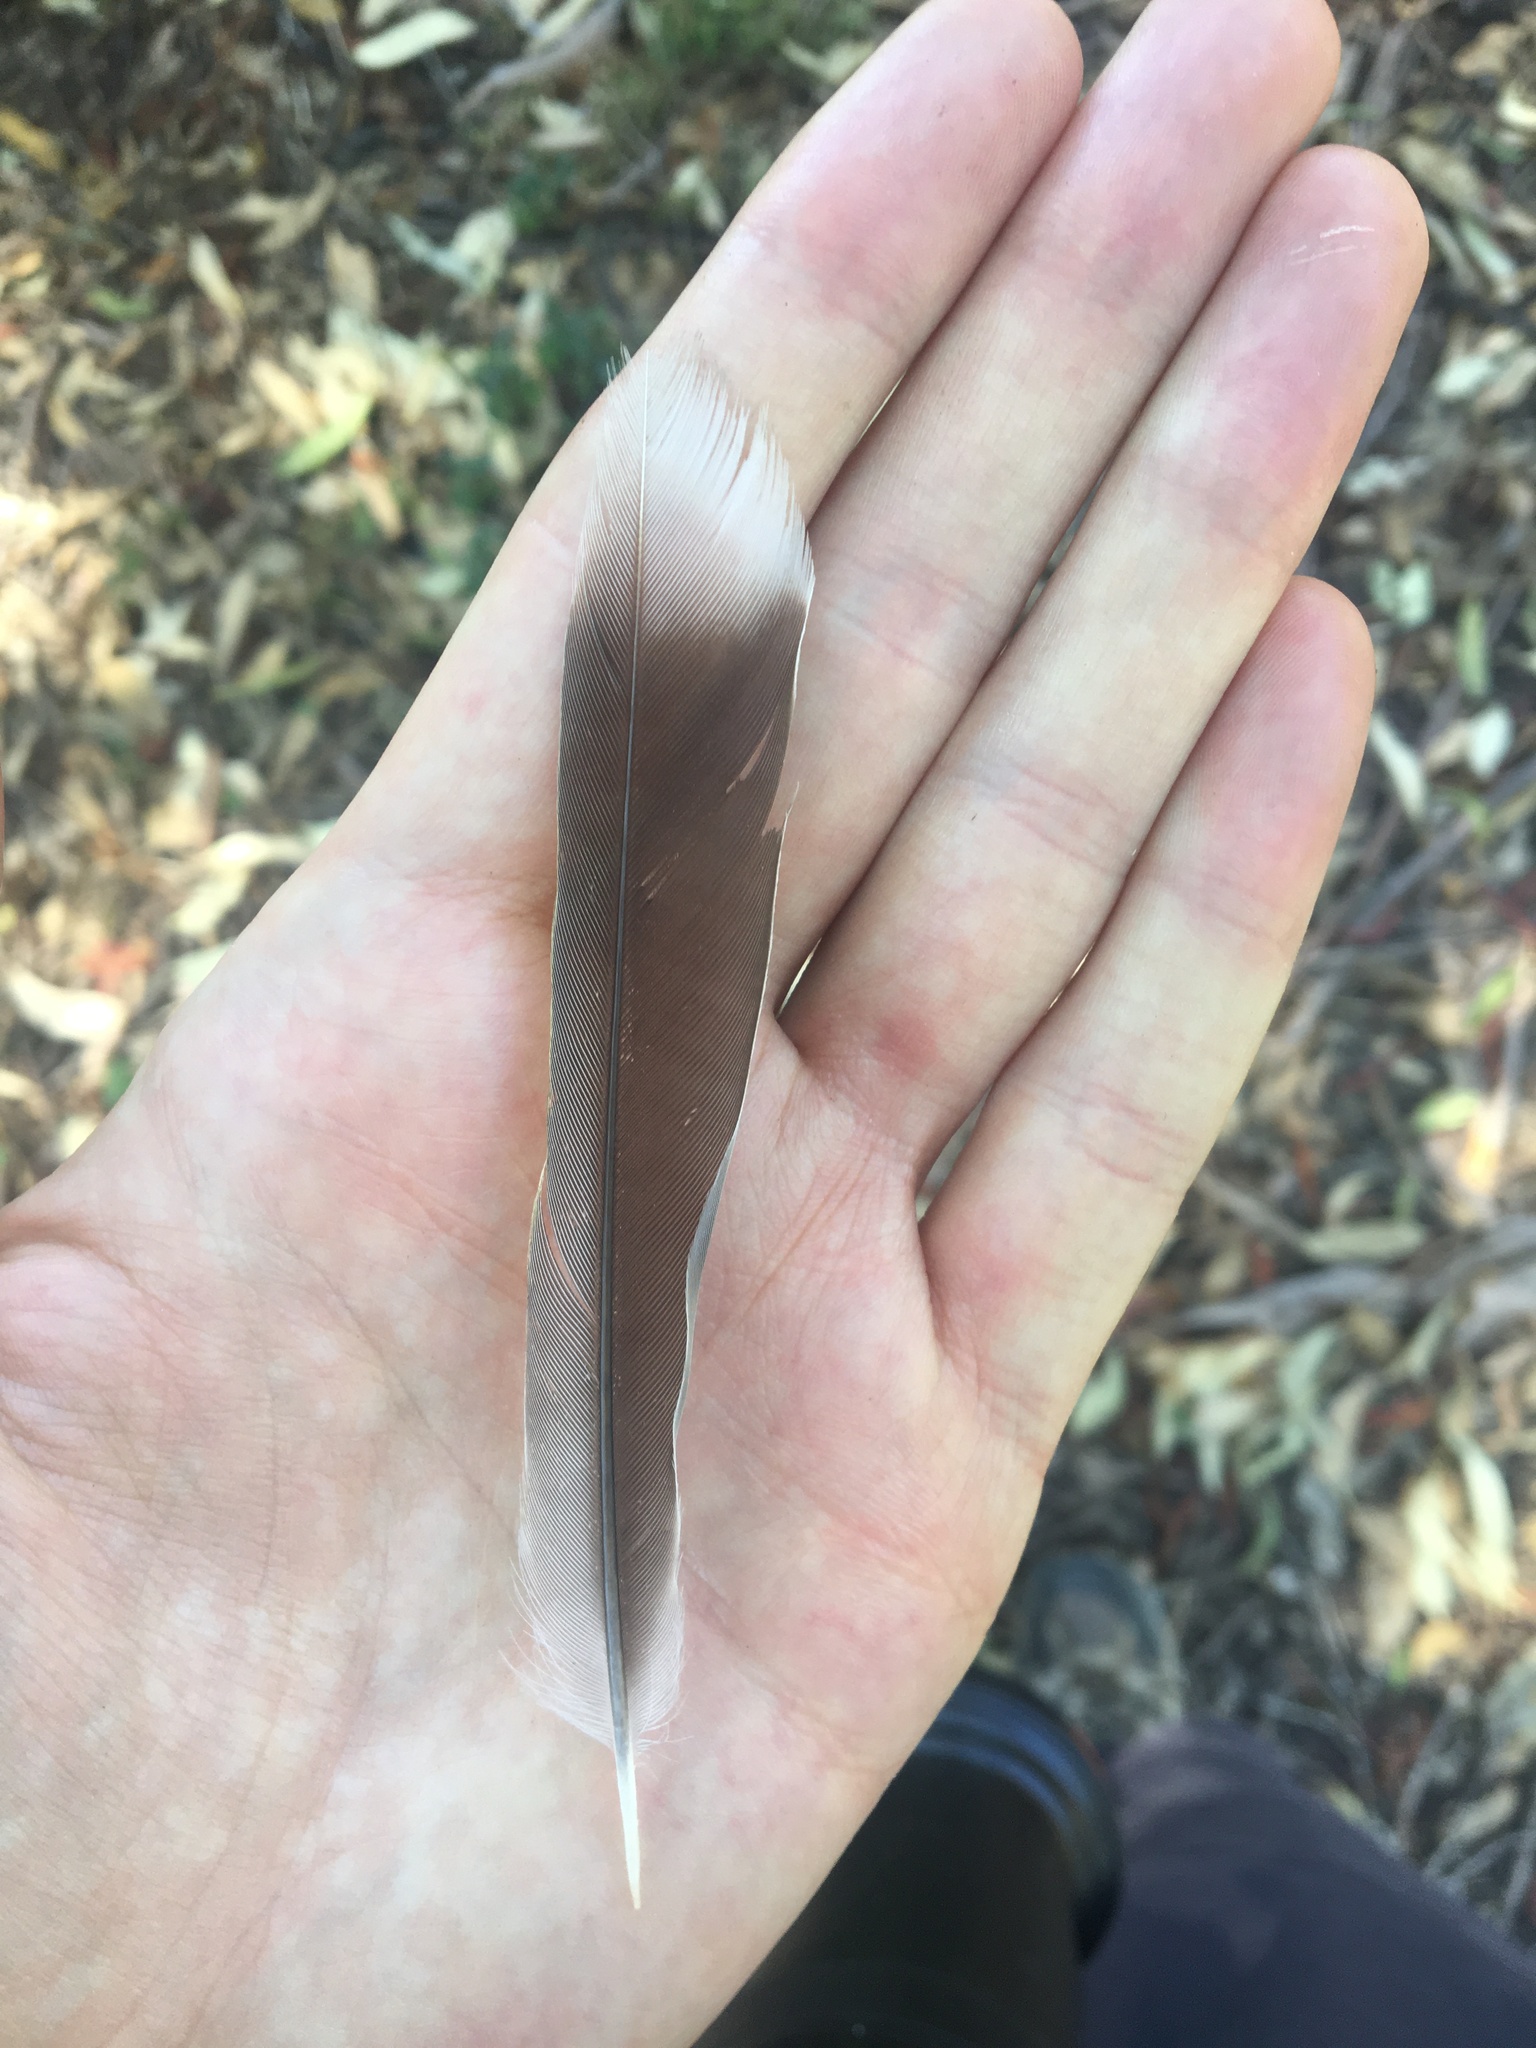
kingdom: Animalia
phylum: Chordata
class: Aves
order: Passeriformes
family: Meliphagidae
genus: Manorina
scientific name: Manorina melanocephala
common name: Noisy miner
